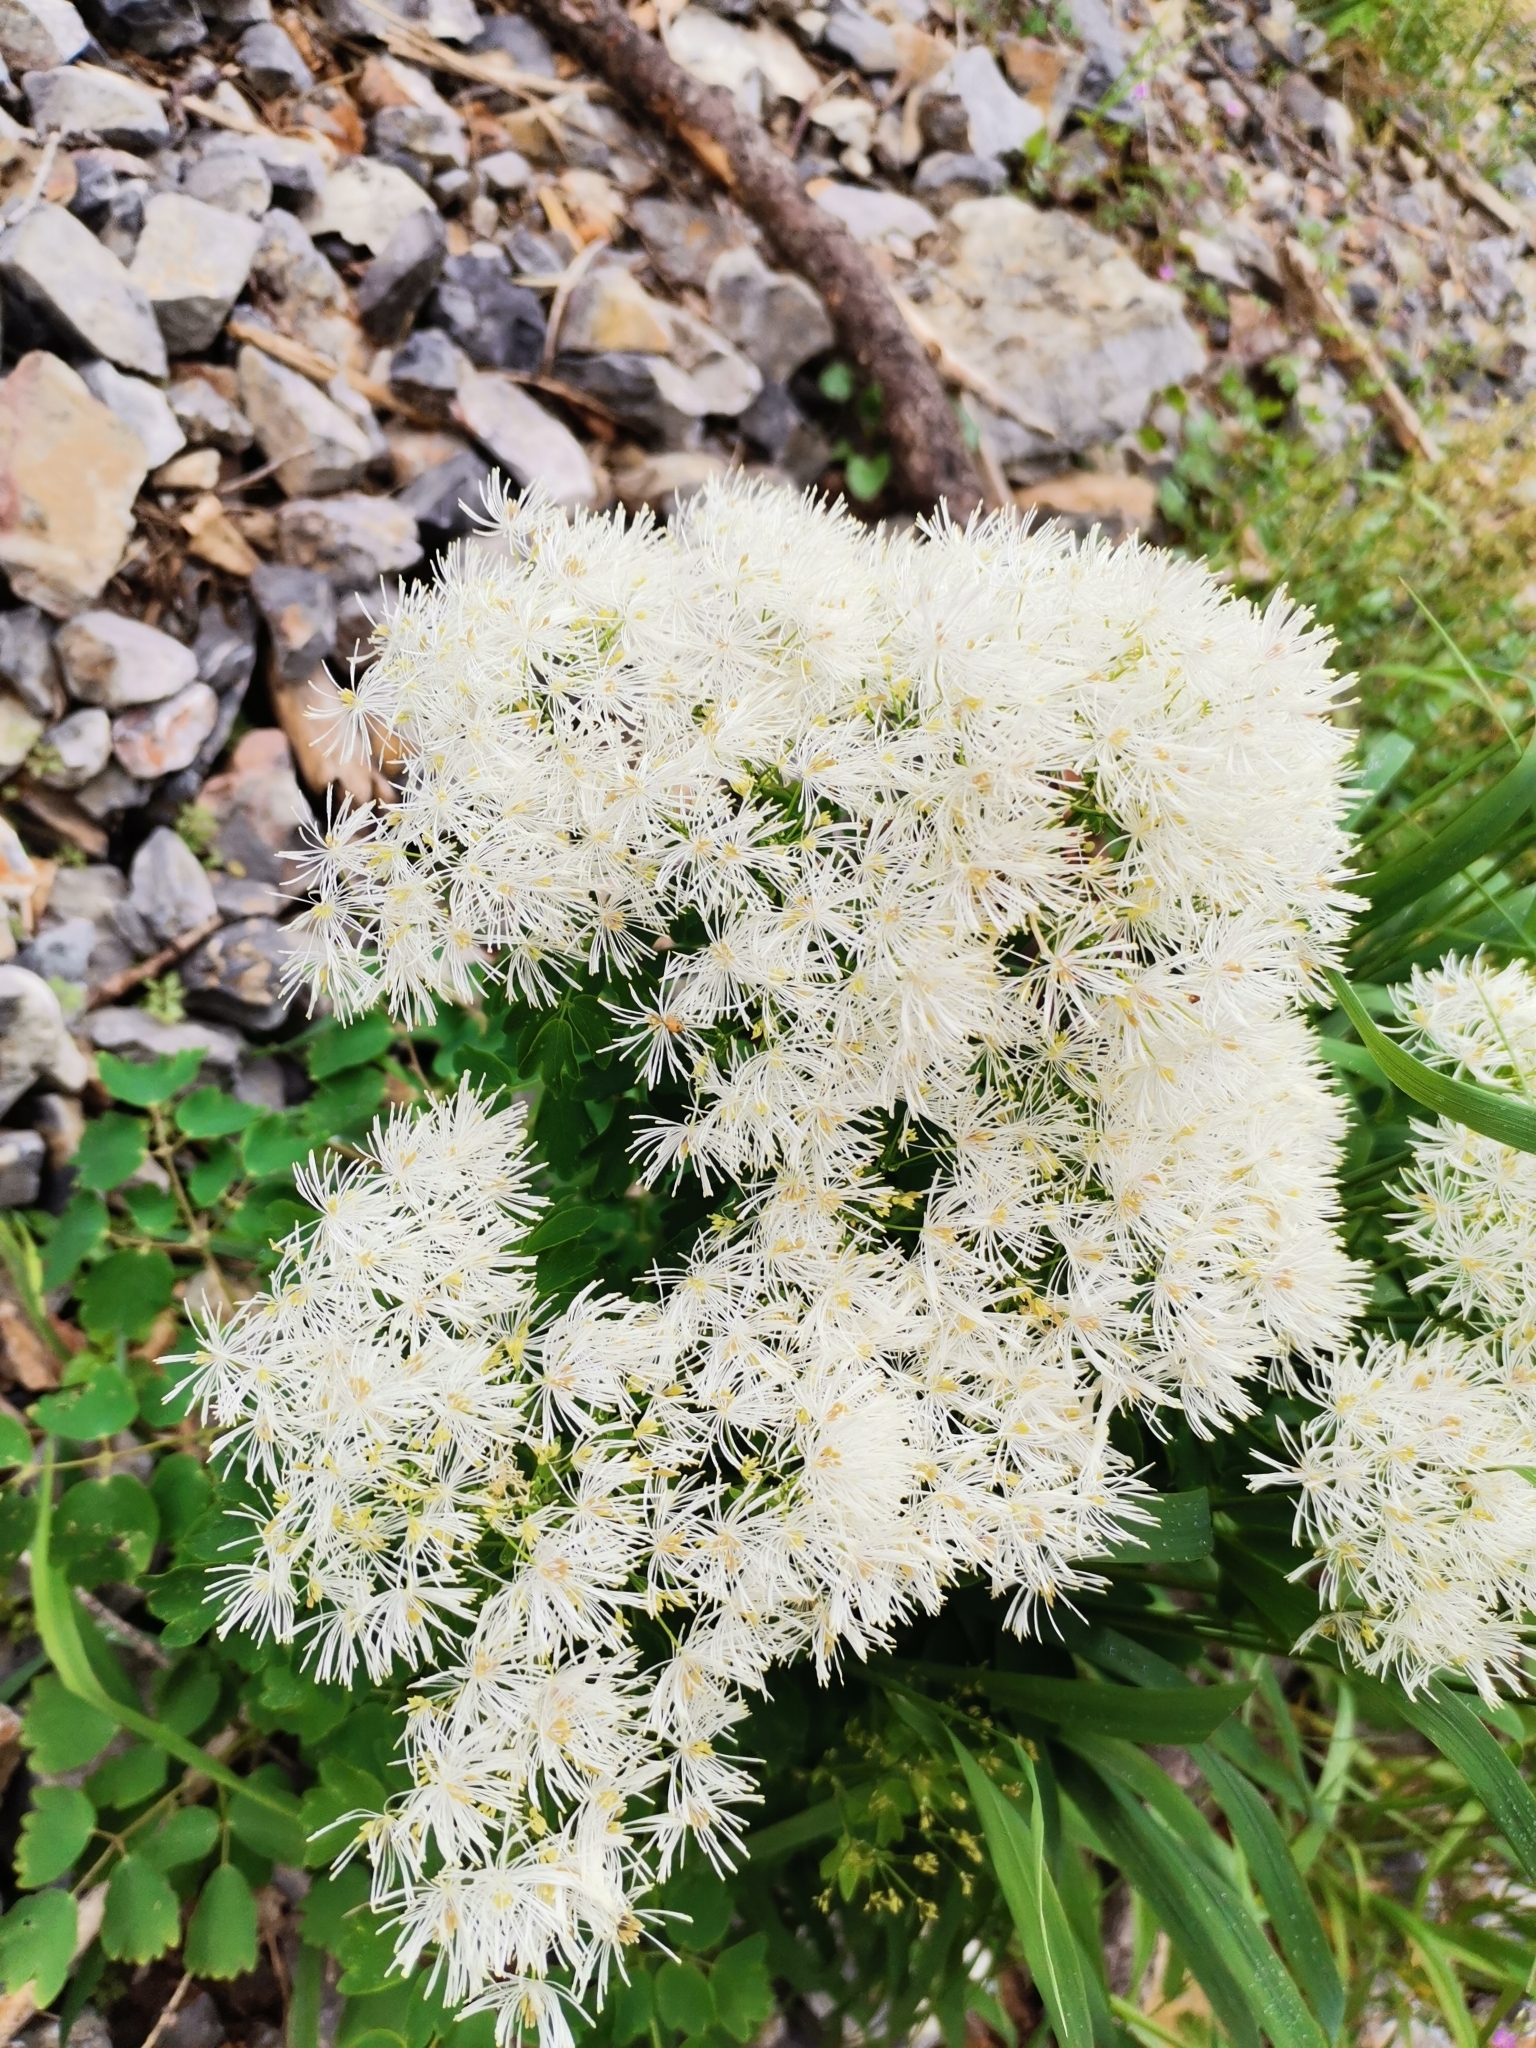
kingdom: Plantae
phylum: Tracheophyta
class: Magnoliopsida
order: Ranunculales
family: Ranunculaceae
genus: Thalictrum
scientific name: Thalictrum aquilegiifolium
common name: French meadow-rue
